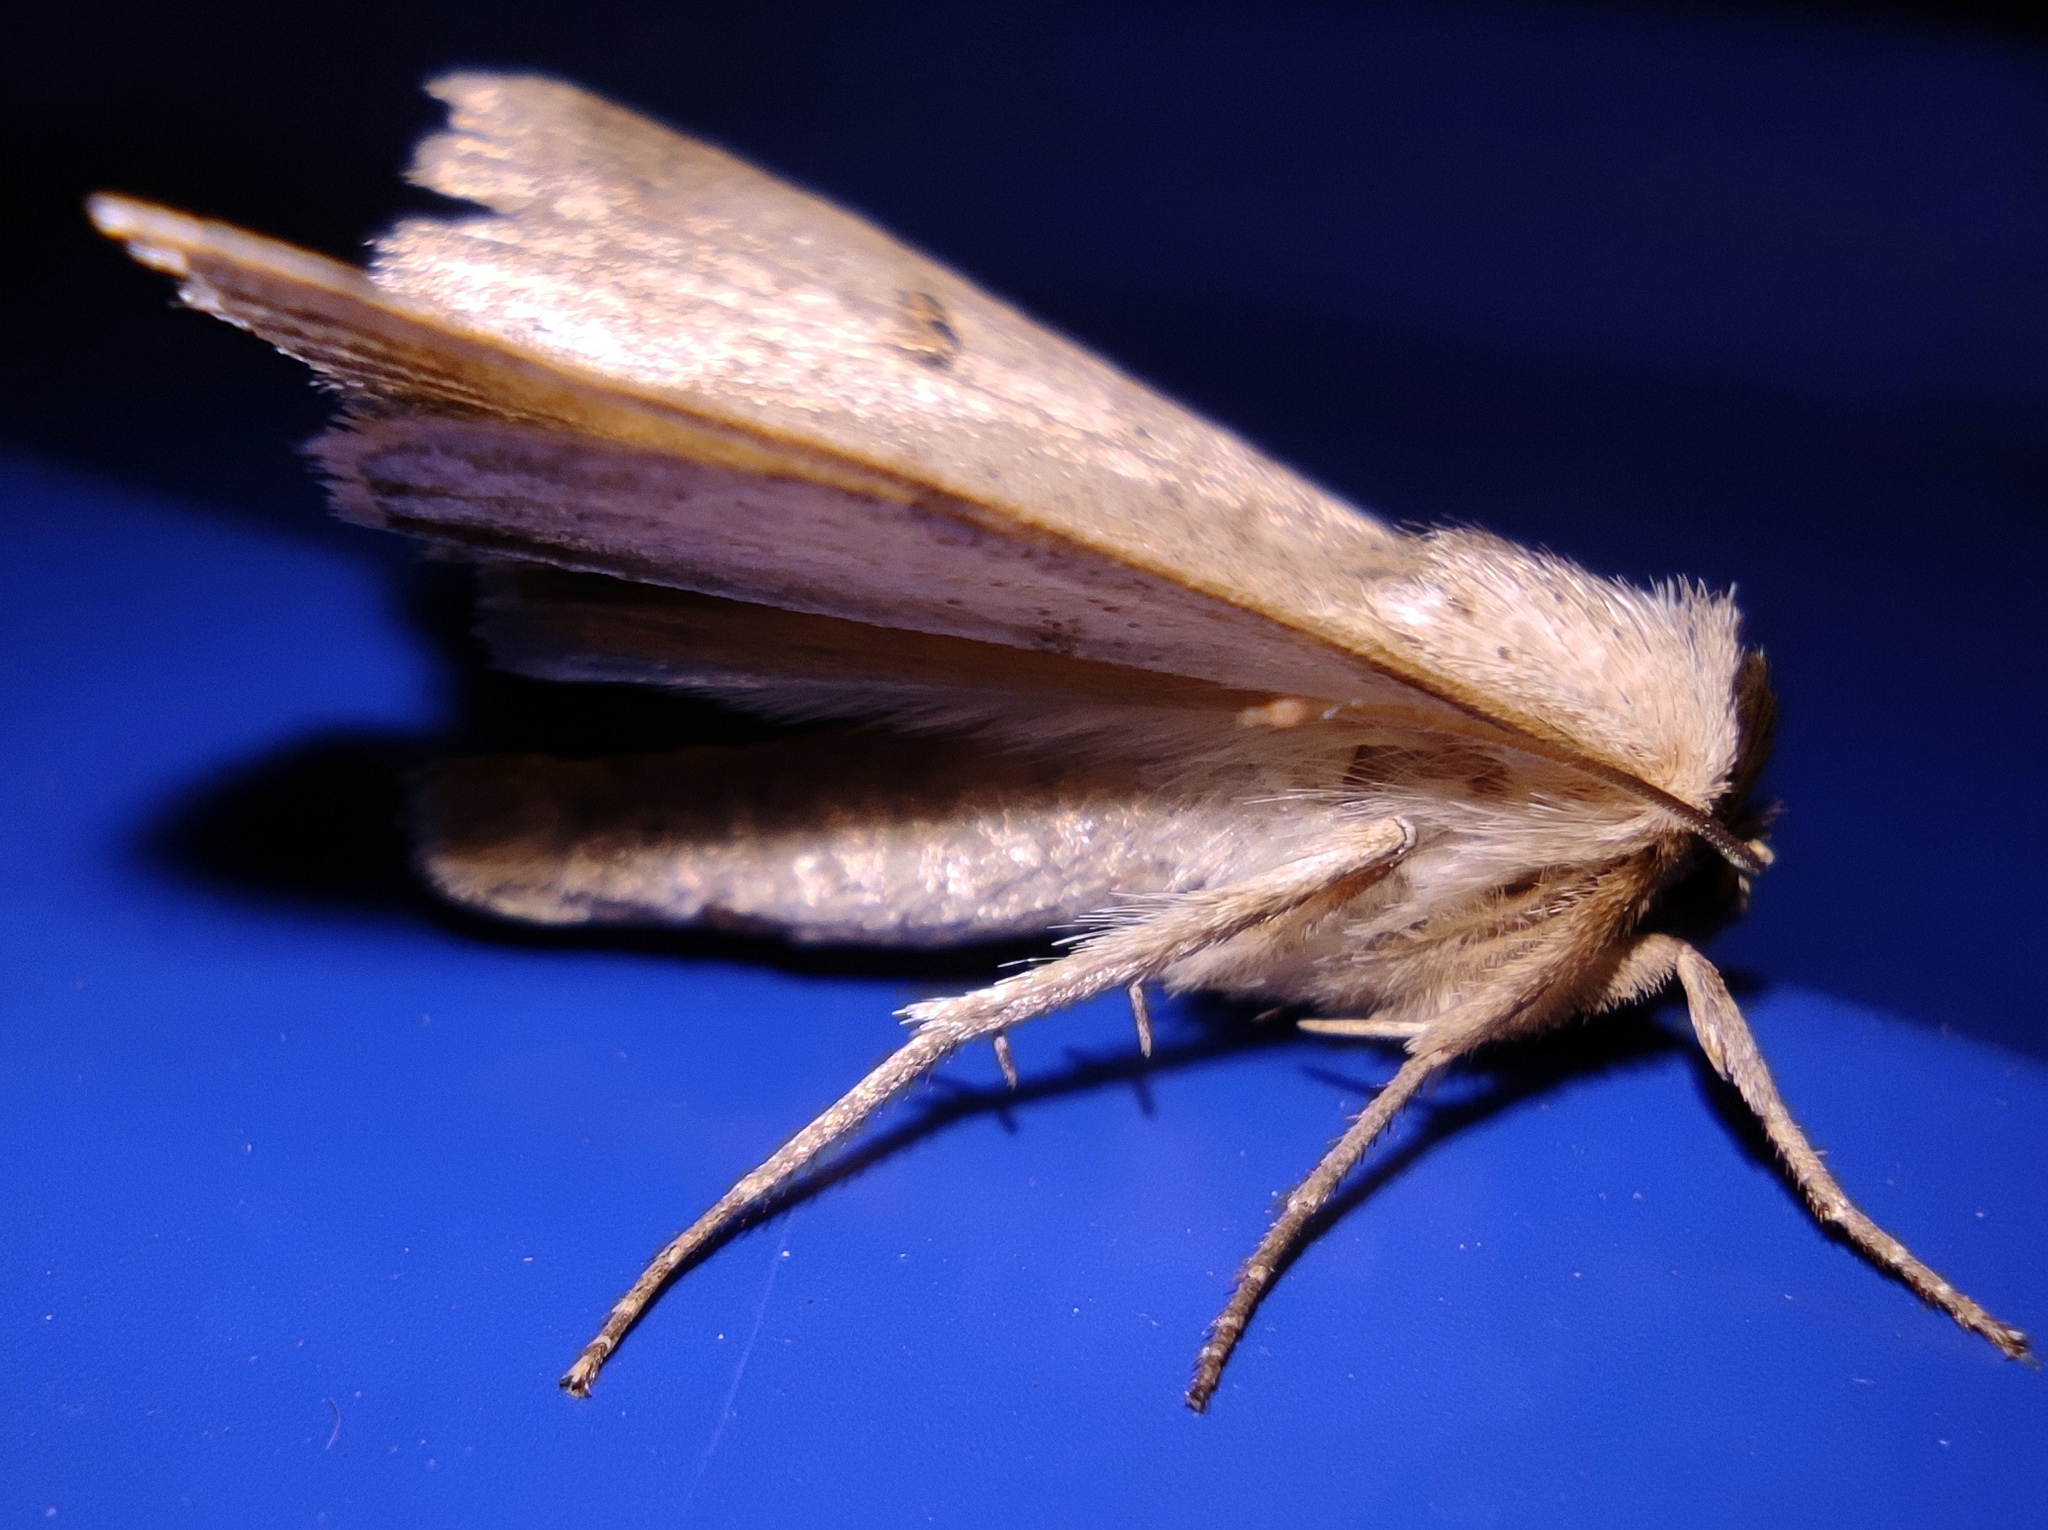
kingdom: Animalia
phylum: Arthropoda
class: Insecta
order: Lepidoptera
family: Erebidae
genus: Lygephila
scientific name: Lygephila craccae
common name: Scarce blackneck
